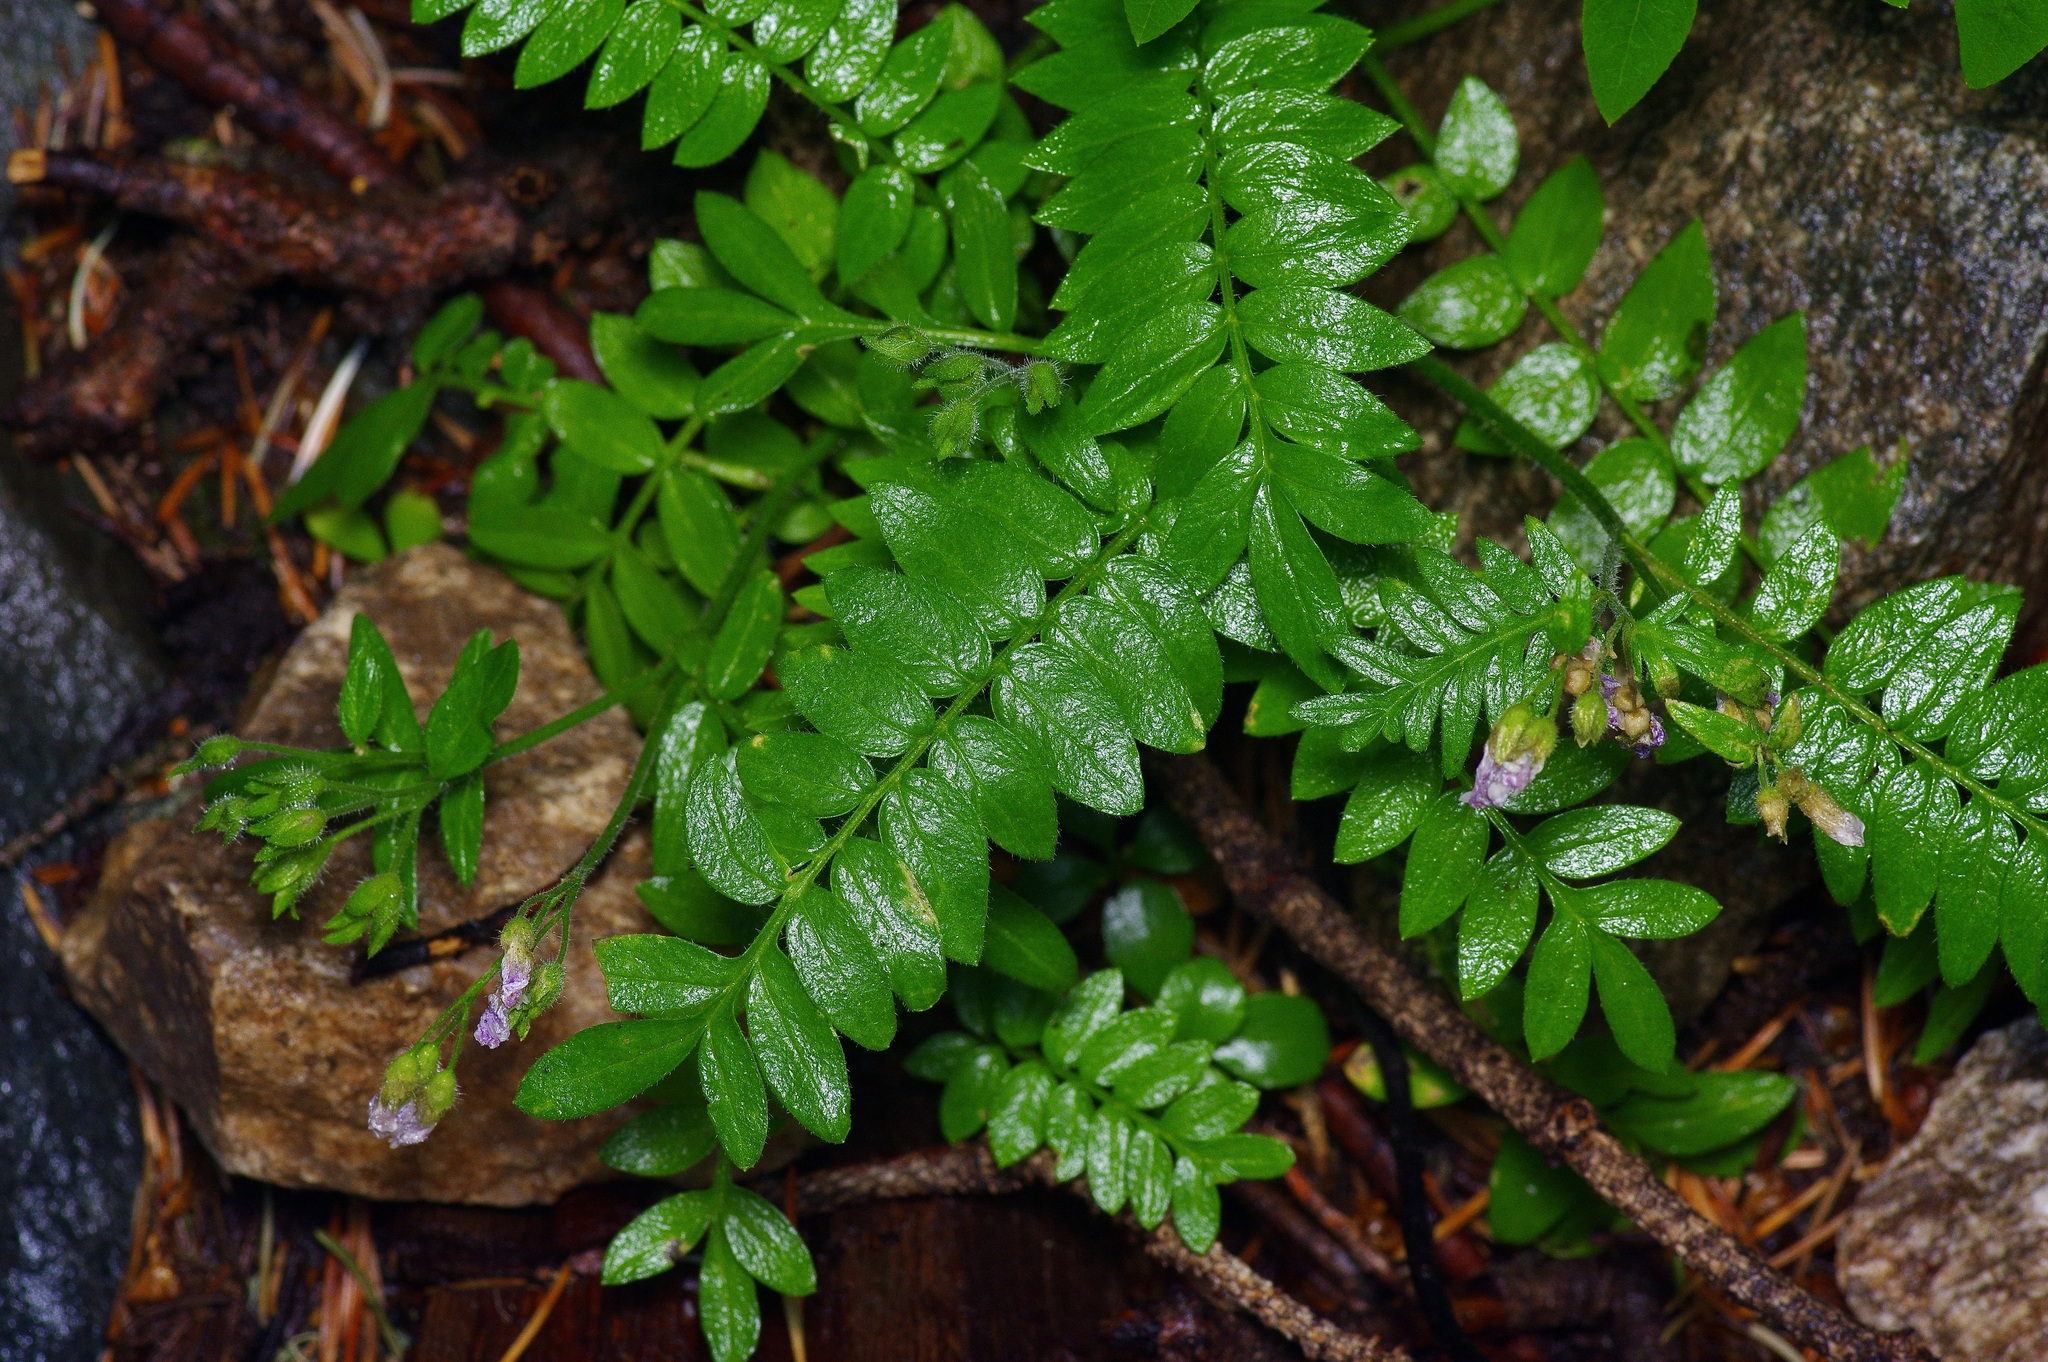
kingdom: Plantae
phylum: Tracheophyta
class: Magnoliopsida
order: Ericales
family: Polemoniaceae
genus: Polemonium
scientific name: Polemonium pulcherrimum
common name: Short jacob's-ladder
